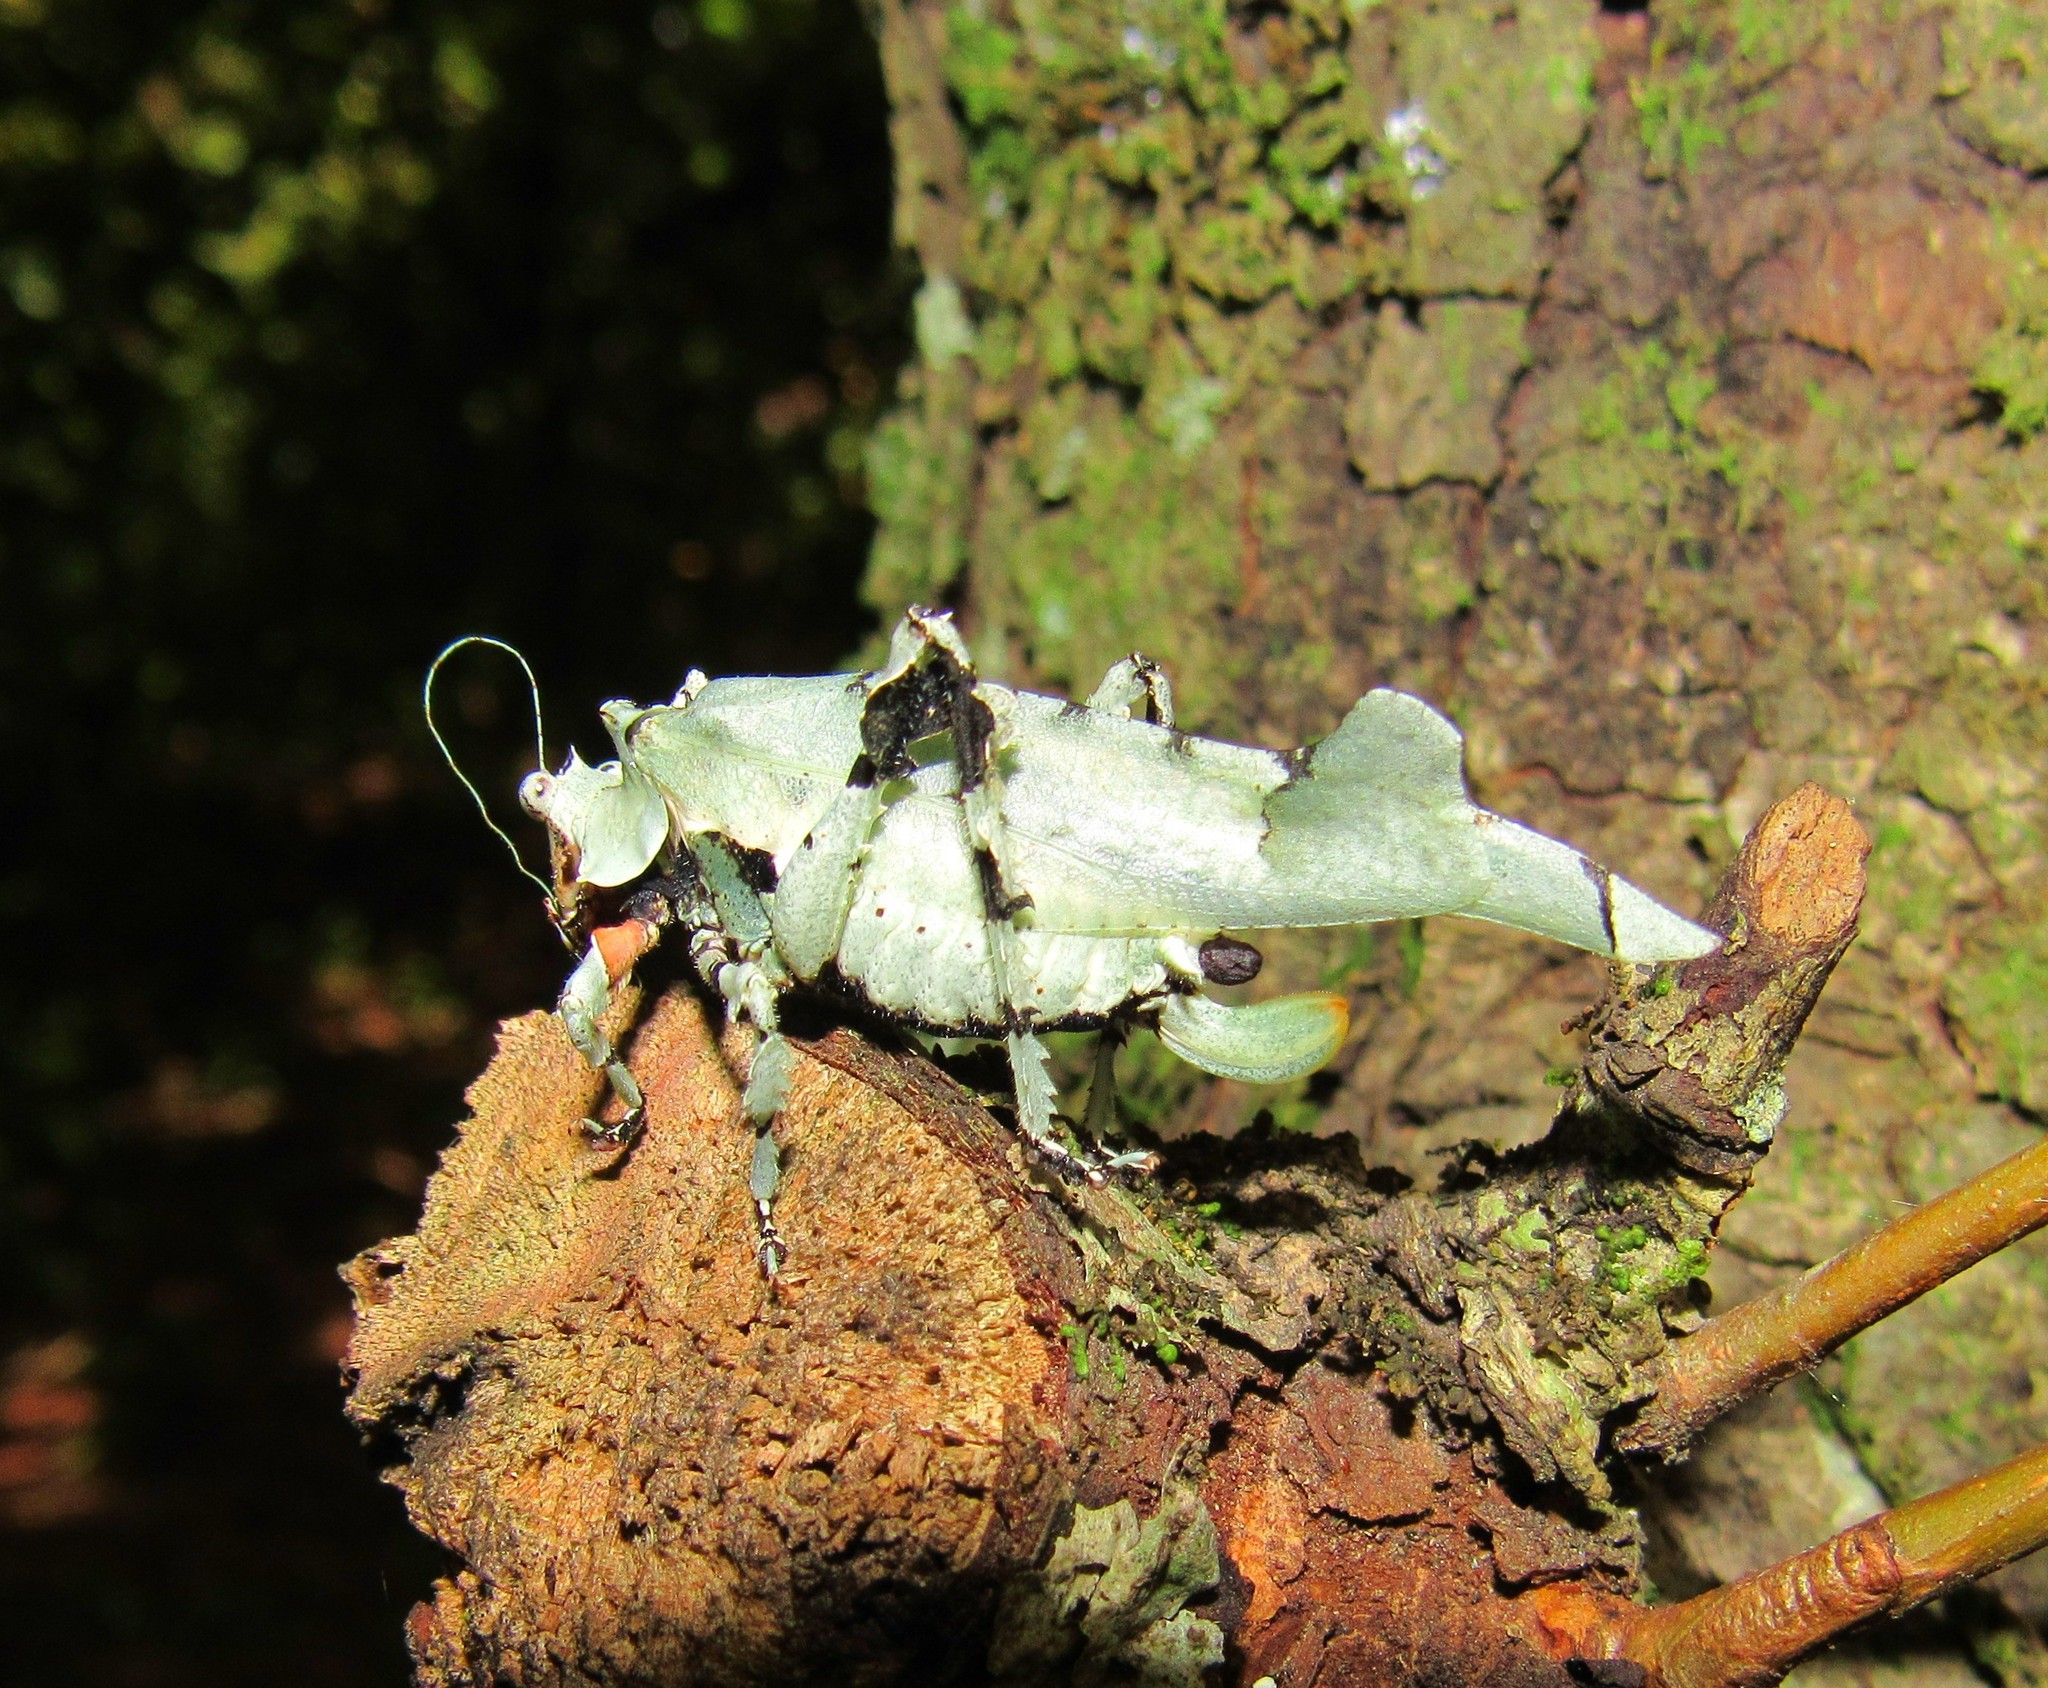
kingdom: Animalia
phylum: Arthropoda
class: Insecta
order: Orthoptera
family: Tettigoniidae
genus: Lichenomorphus
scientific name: Lichenomorphus carlosmendesi
